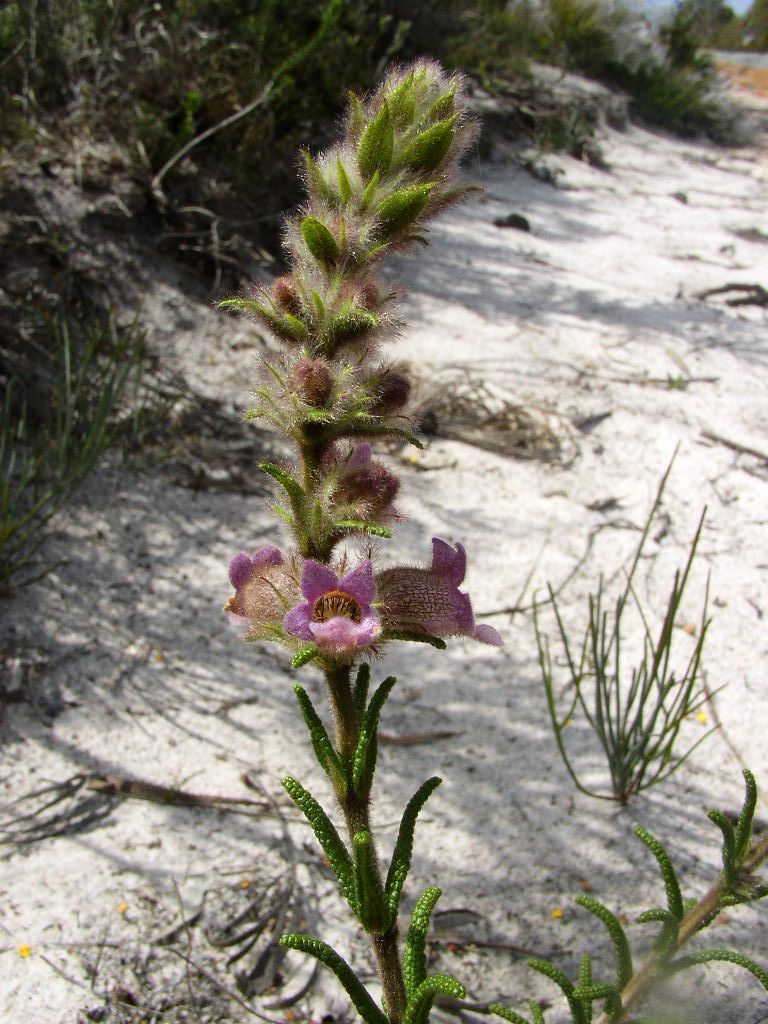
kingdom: Plantae
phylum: Tracheophyta
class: Magnoliopsida
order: Lamiales
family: Lamiaceae
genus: Hemiphora
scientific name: Hemiphora bartlingii
